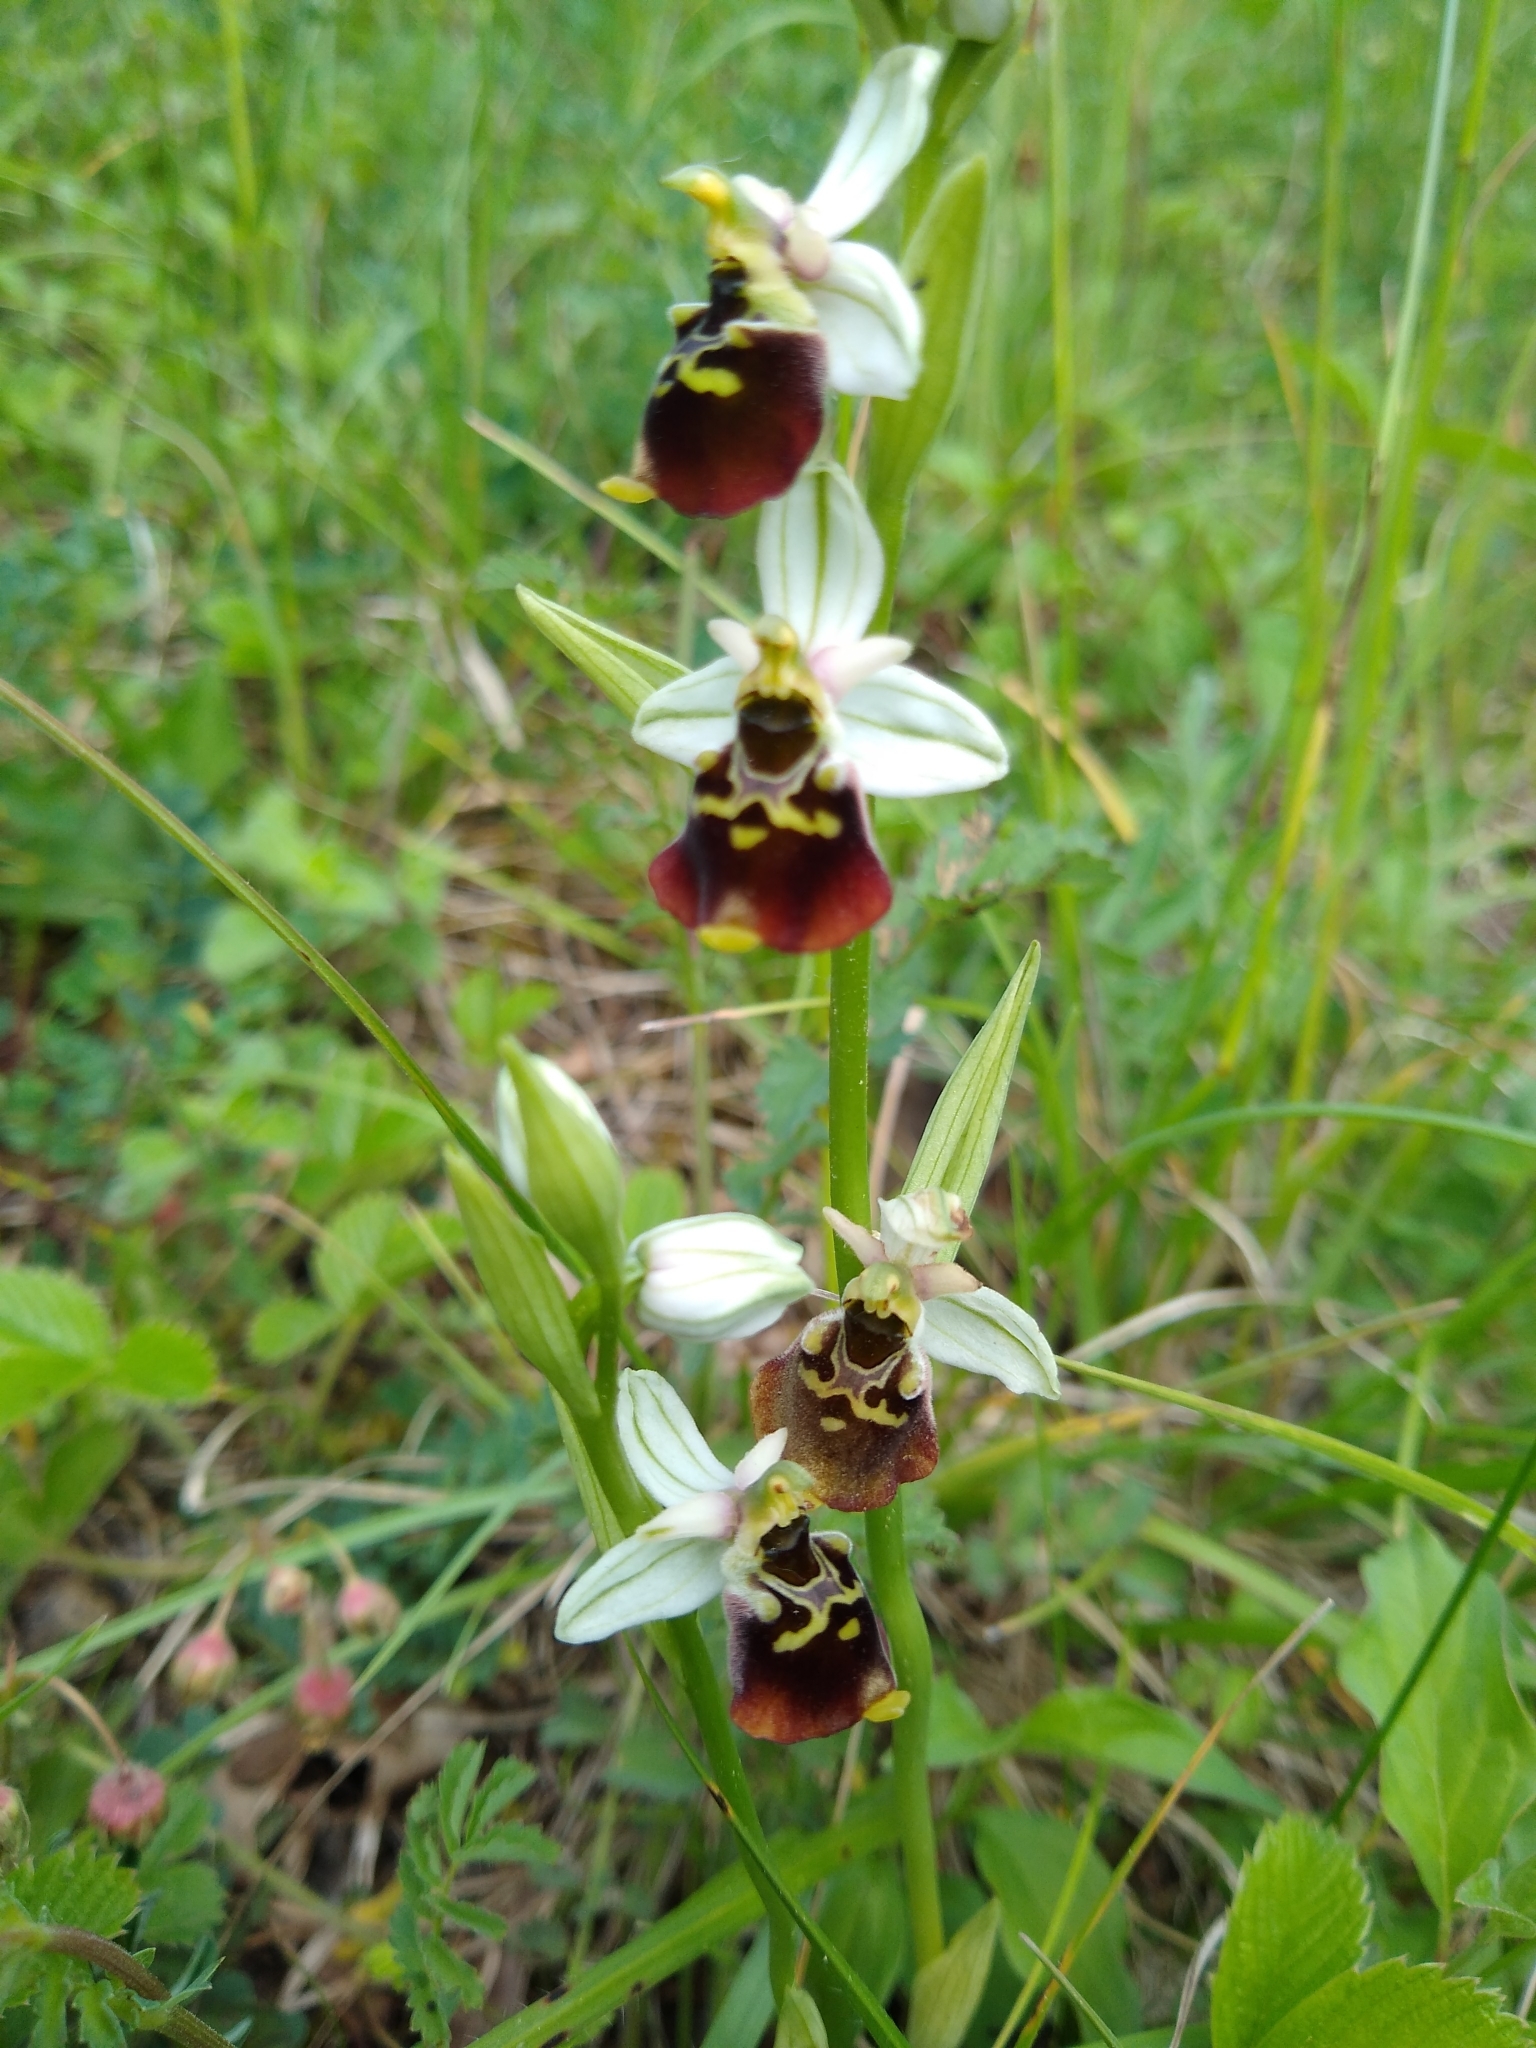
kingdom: Plantae
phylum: Tracheophyta
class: Liliopsida
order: Asparagales
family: Orchidaceae
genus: Ophrys
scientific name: Ophrys holosericea
